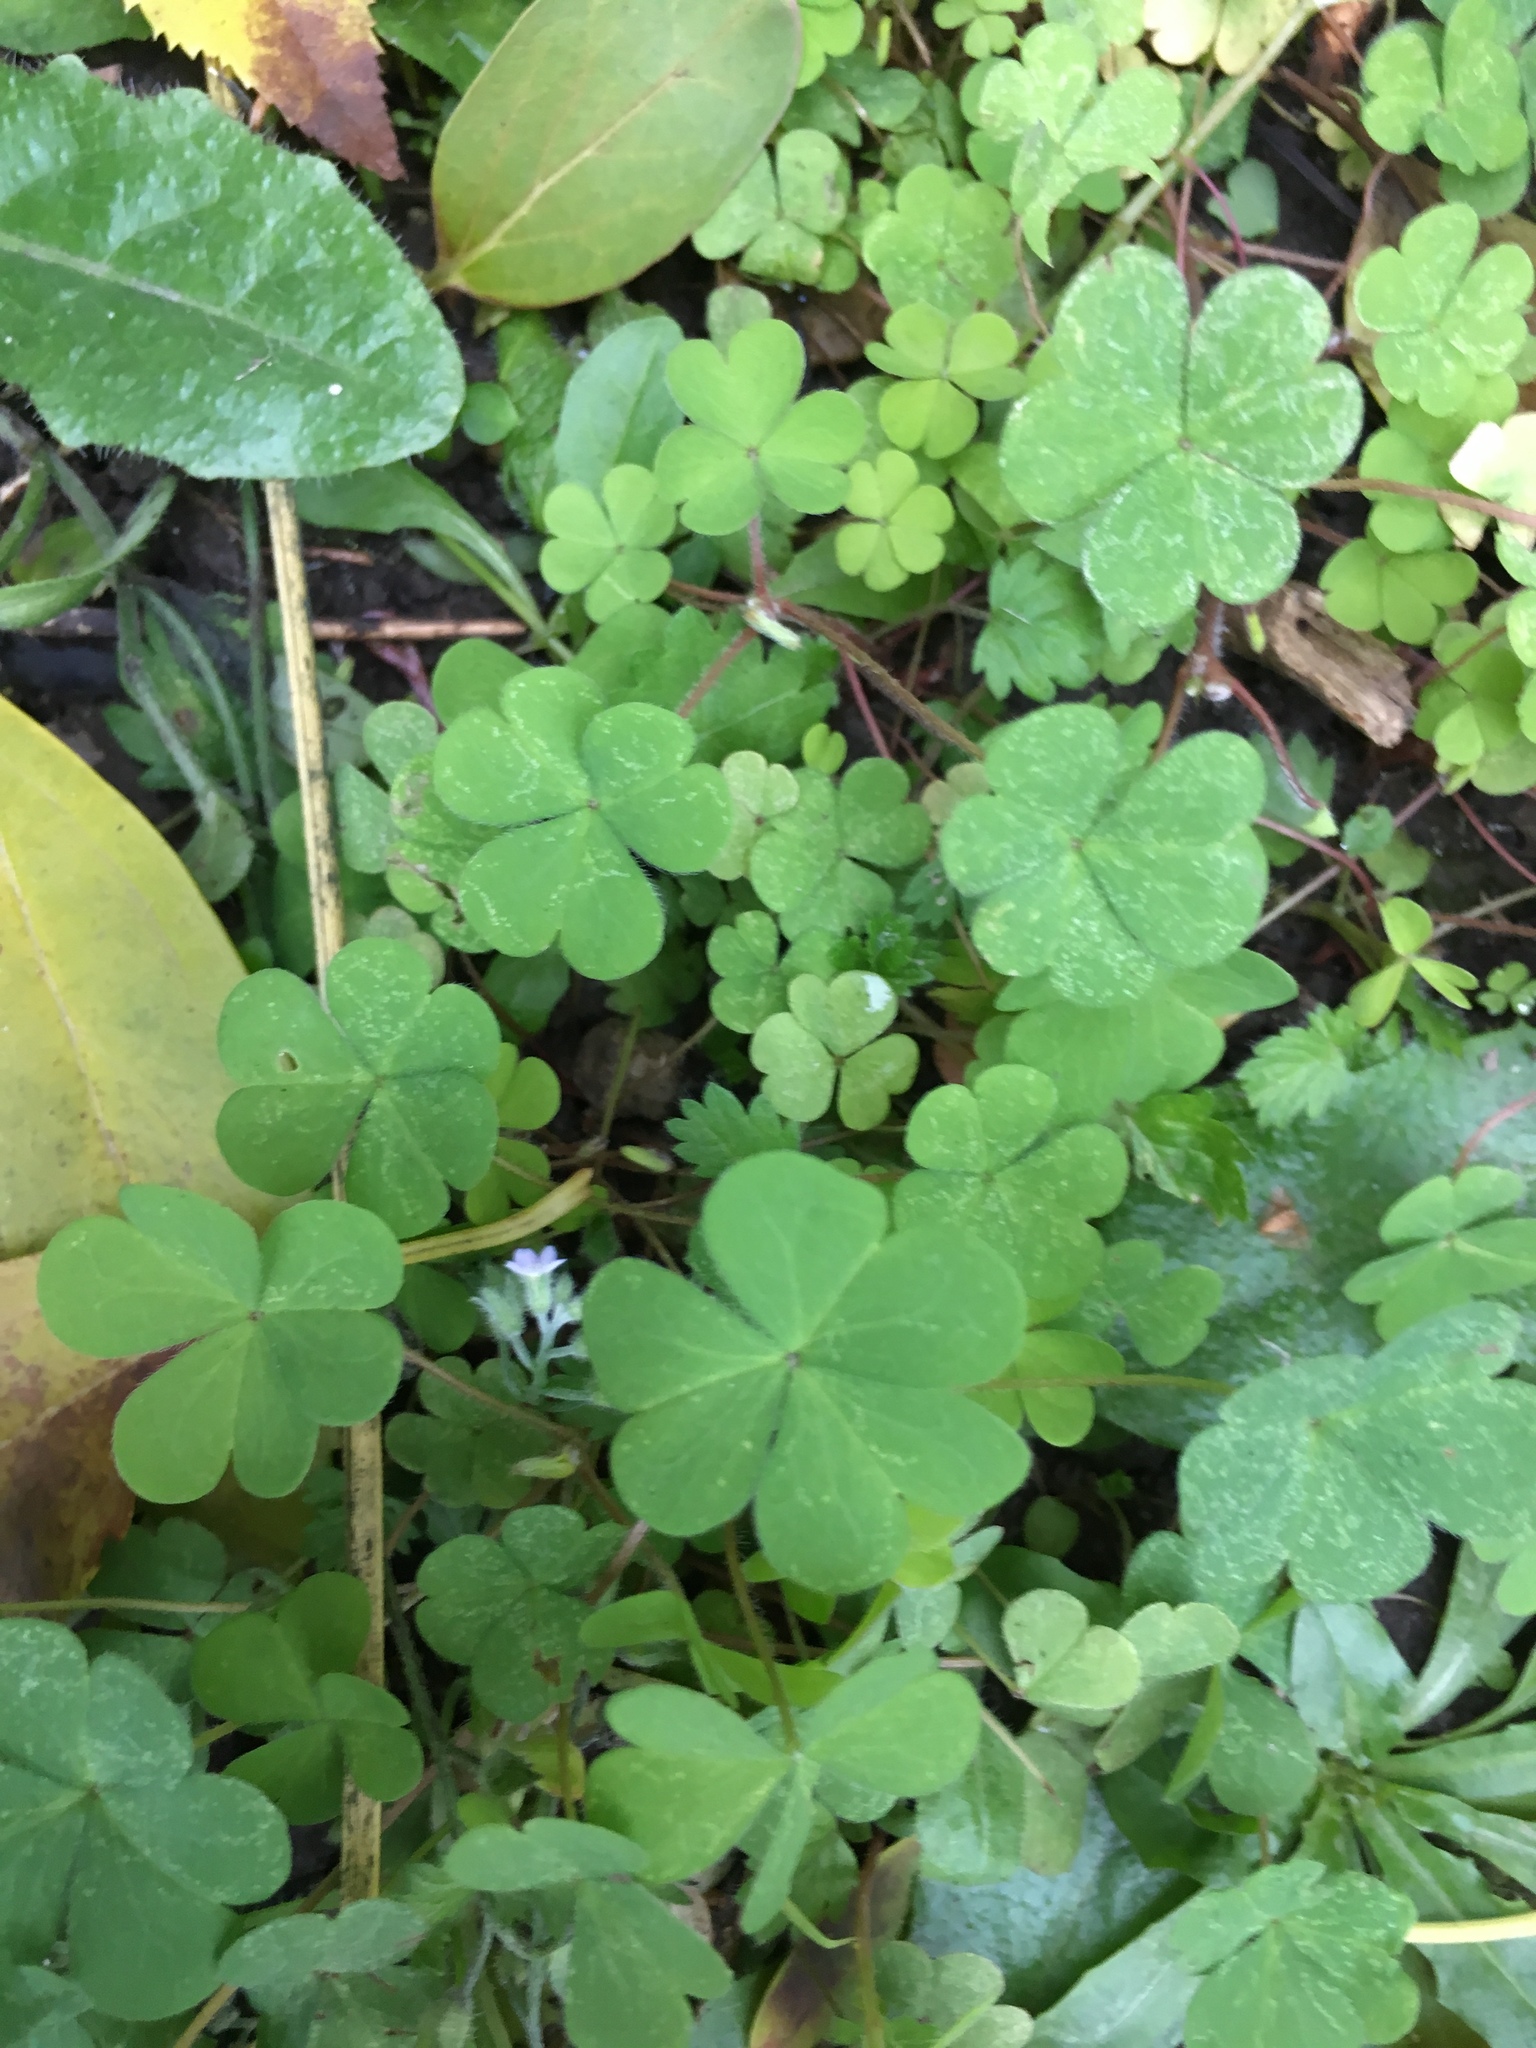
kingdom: Plantae
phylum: Tracheophyta
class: Magnoliopsida
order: Oxalidales
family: Oxalidaceae
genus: Oxalis
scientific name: Oxalis corniculata
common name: Procumbent yellow-sorrel
